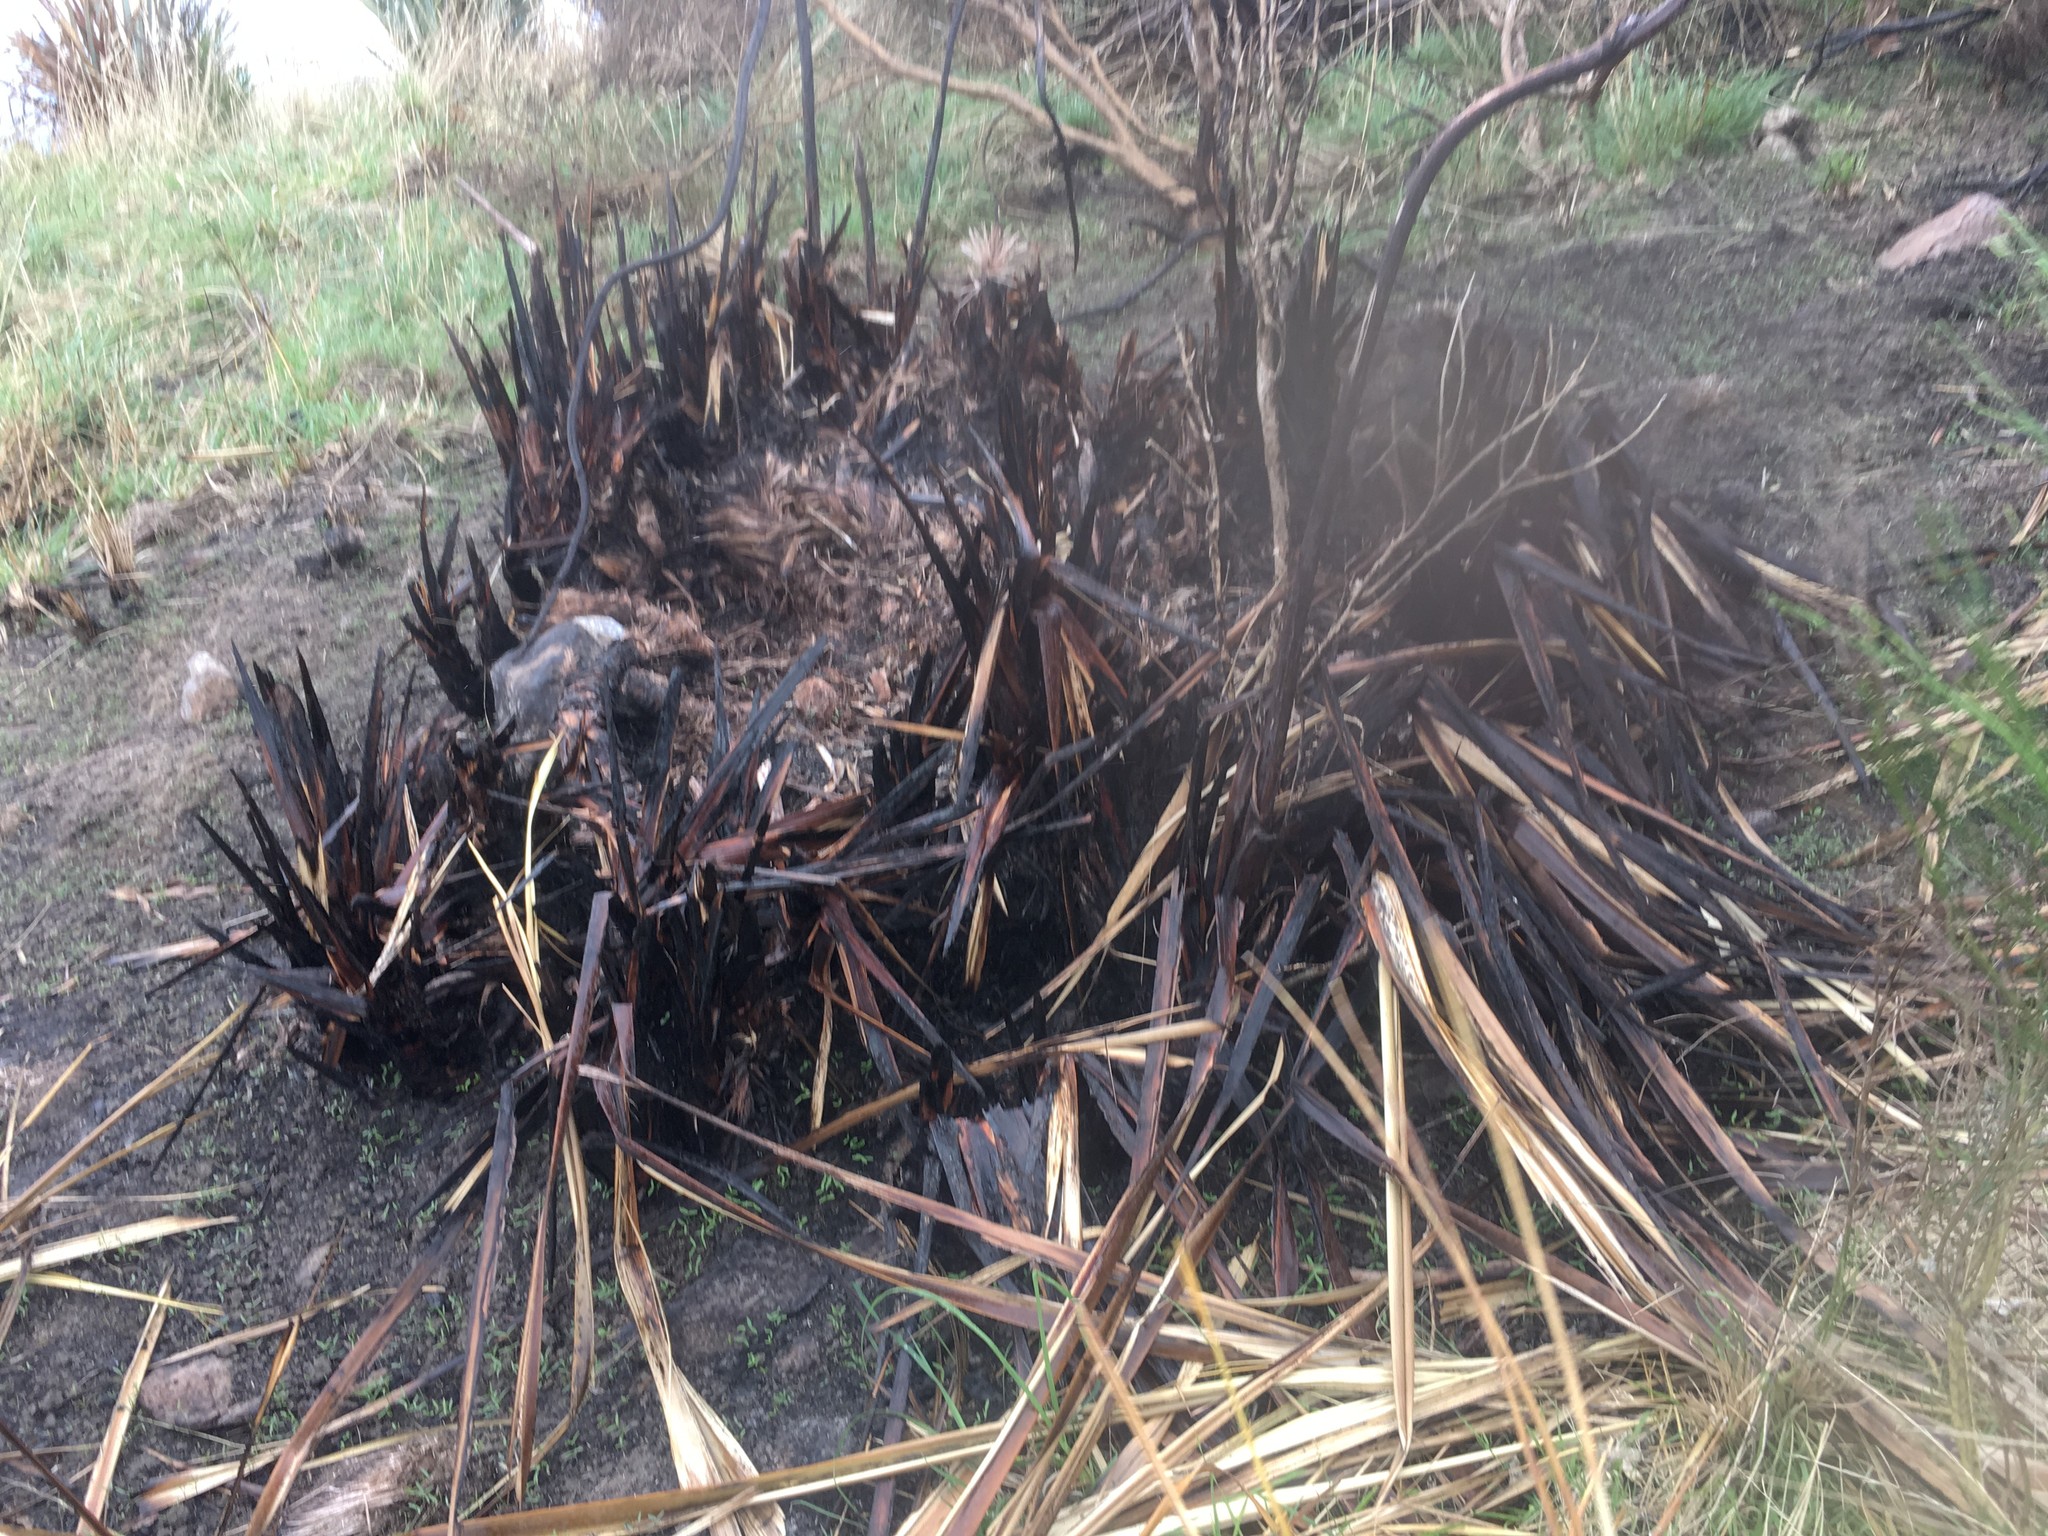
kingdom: Plantae
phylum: Tracheophyta
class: Liliopsida
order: Asparagales
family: Asphodelaceae
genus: Phormium
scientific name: Phormium tenax
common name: New zealand flax
